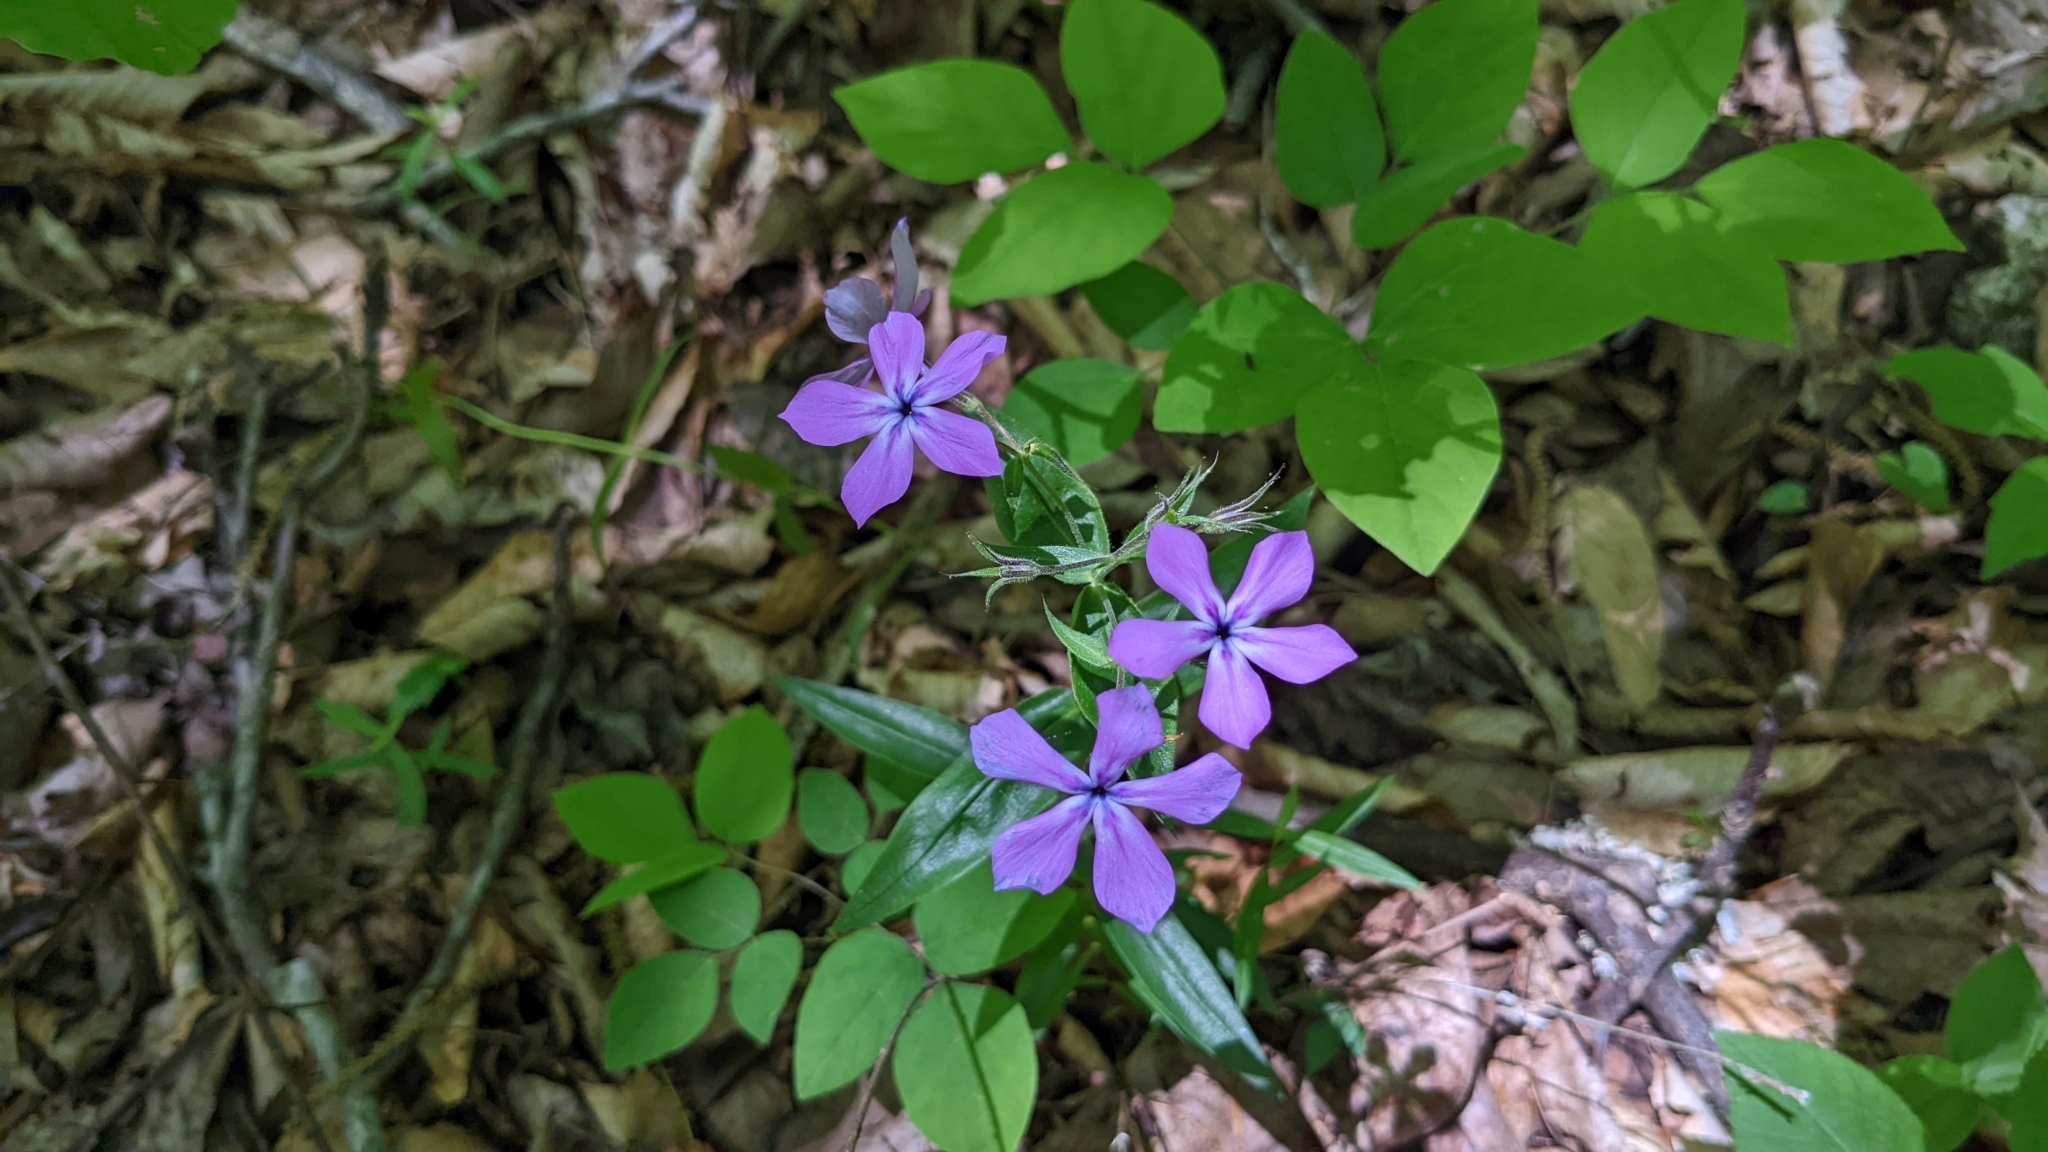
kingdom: Plantae
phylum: Tracheophyta
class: Magnoliopsida
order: Ericales
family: Polemoniaceae
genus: Phlox
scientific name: Phlox pilosa
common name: Prairie phlox
